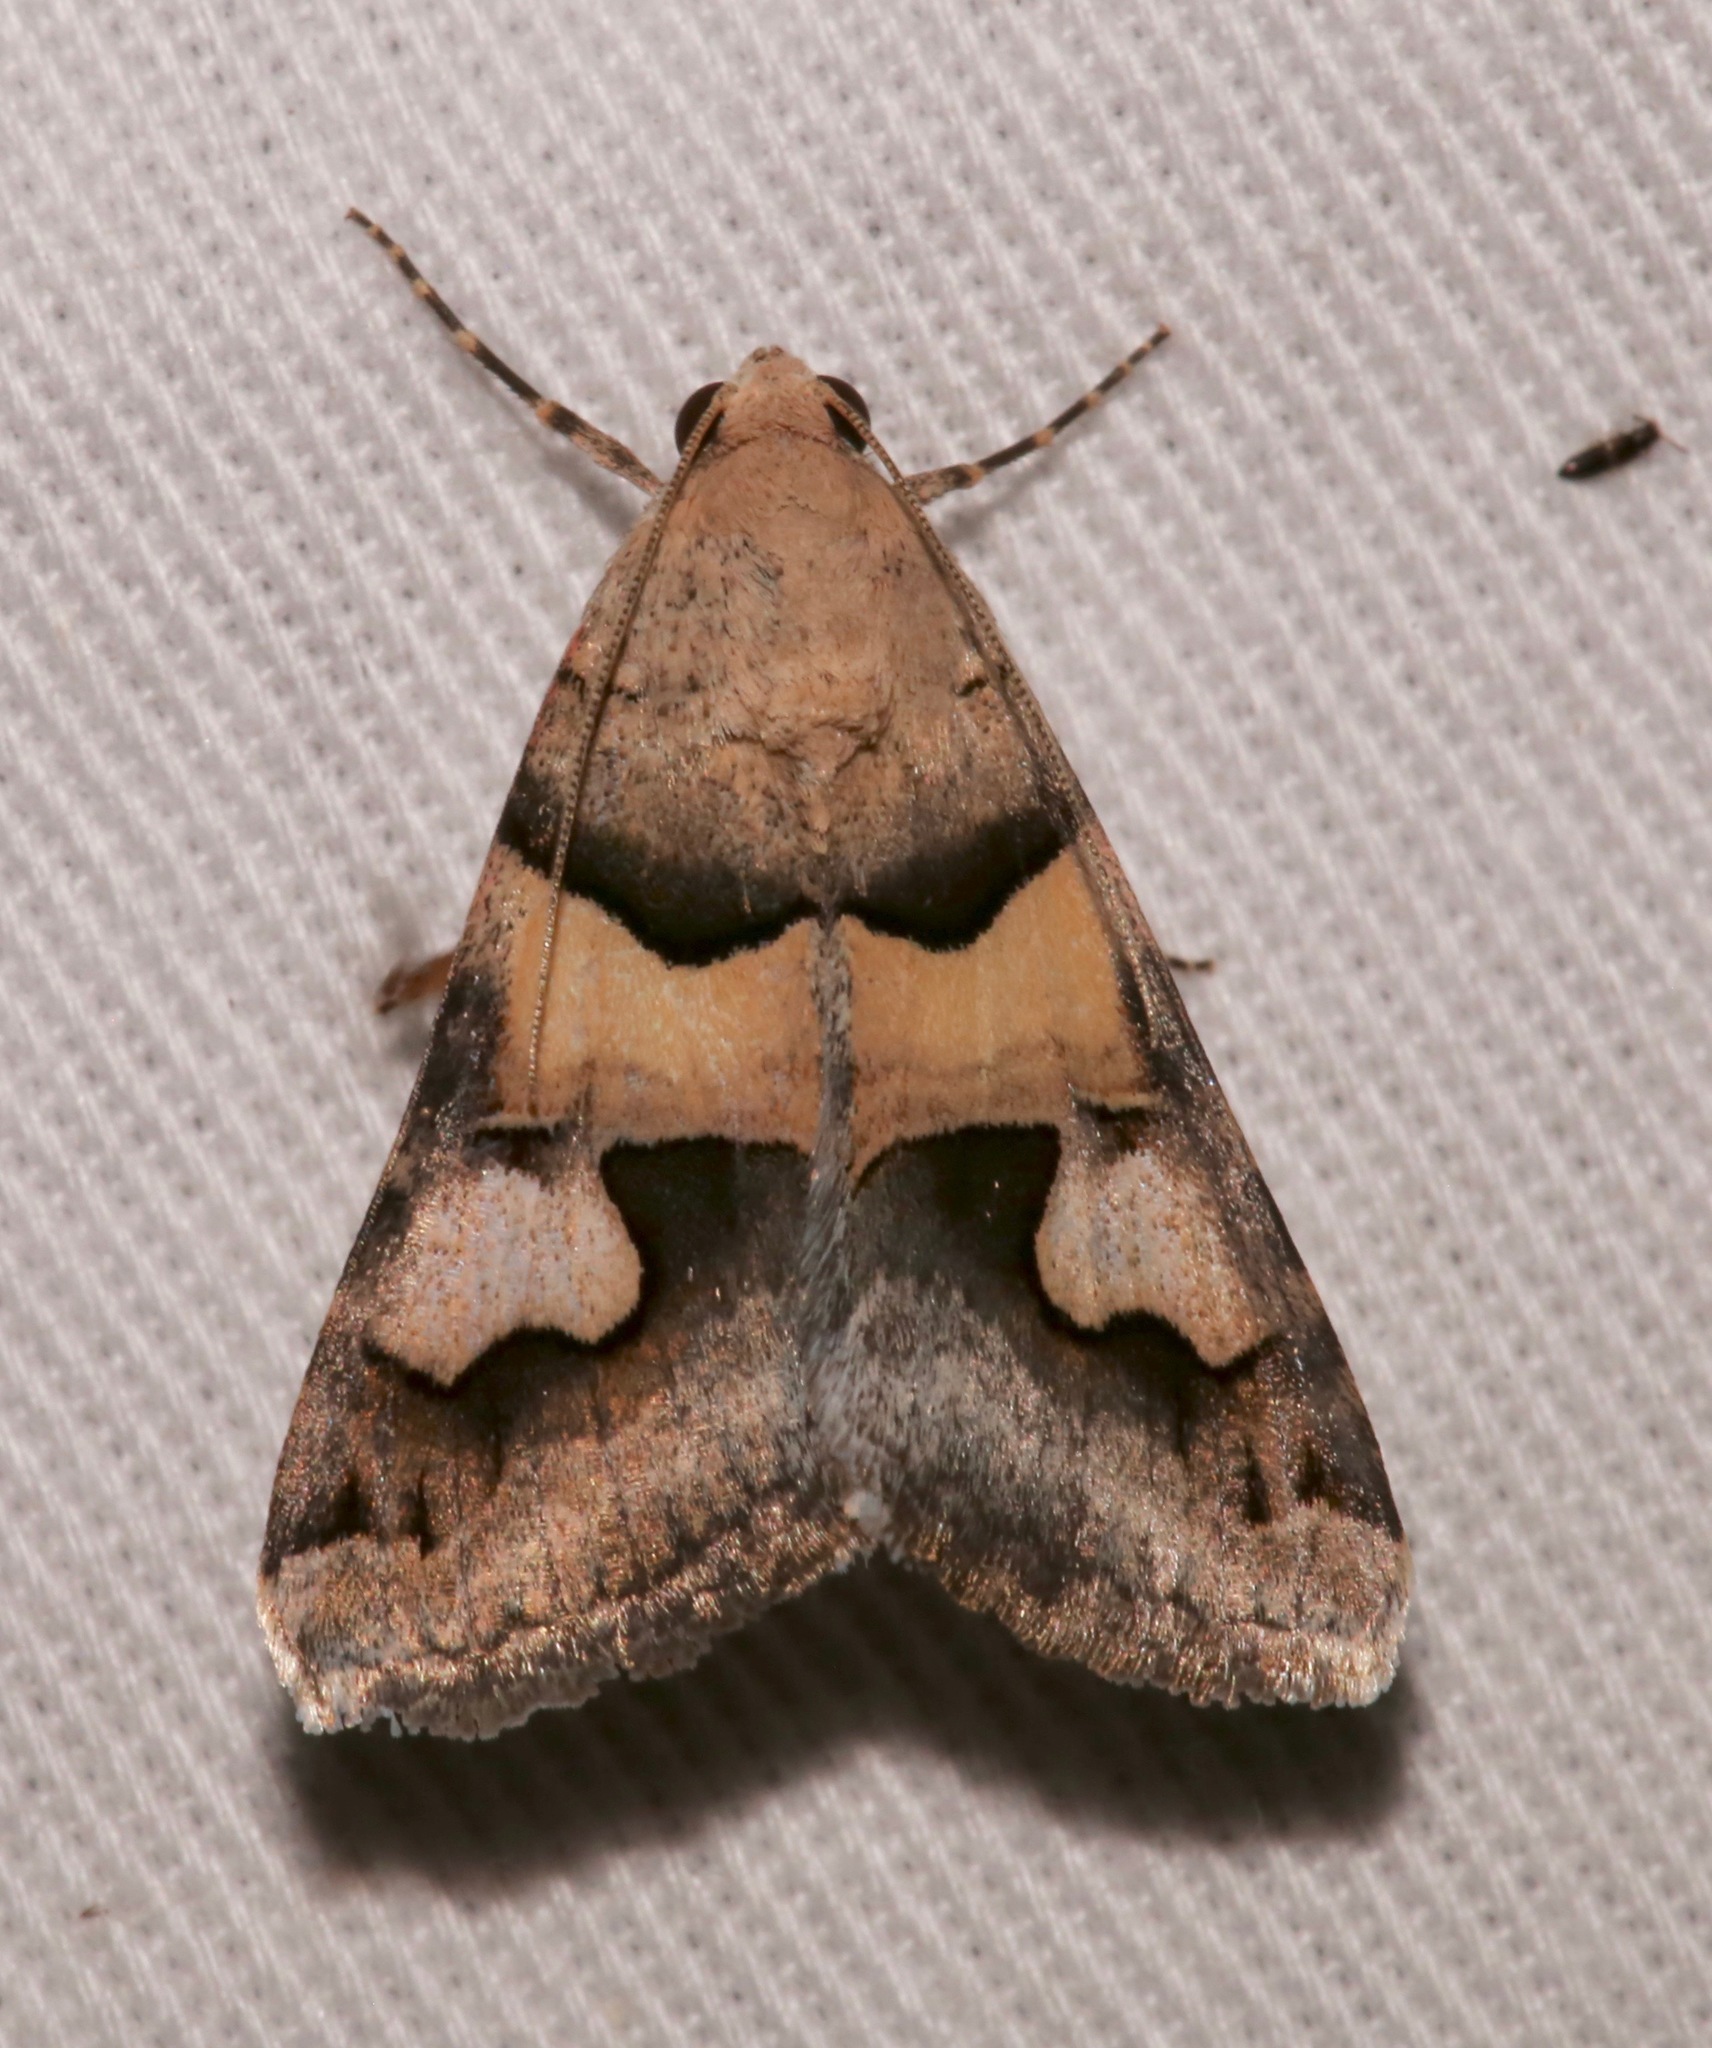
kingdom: Animalia
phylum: Arthropoda
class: Insecta
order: Lepidoptera
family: Erebidae
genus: Drasteria
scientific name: Drasteria pallescens
